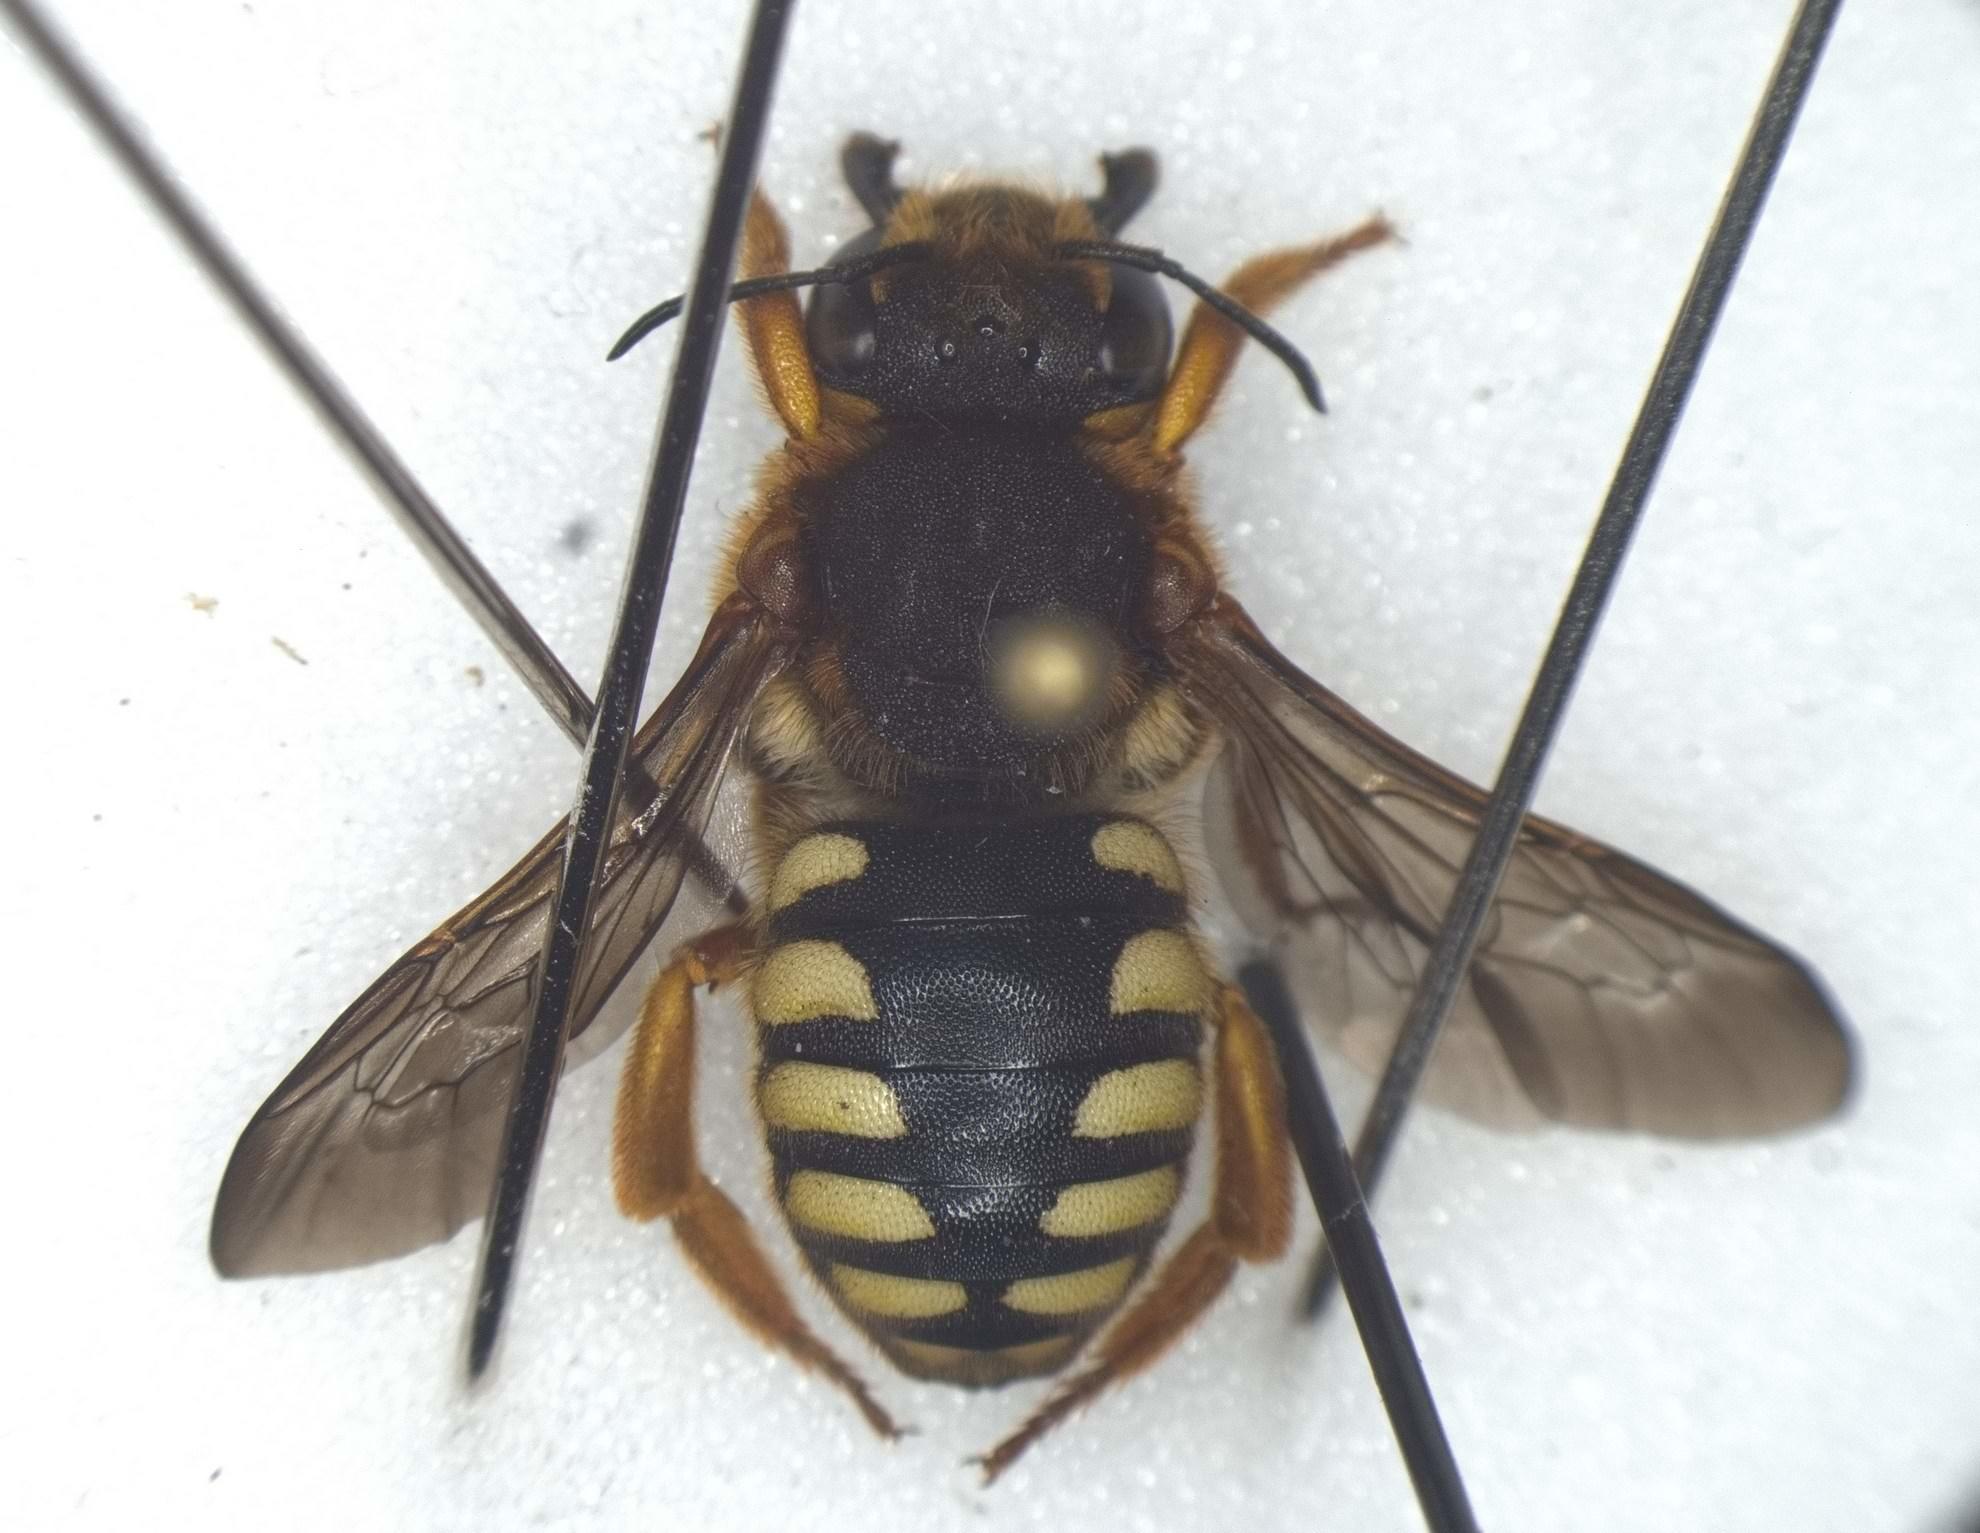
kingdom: Animalia
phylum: Arthropoda
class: Insecta
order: Hymenoptera
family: Megachilidae
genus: Rhodanthidium
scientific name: Rhodanthidium septemdentatum
